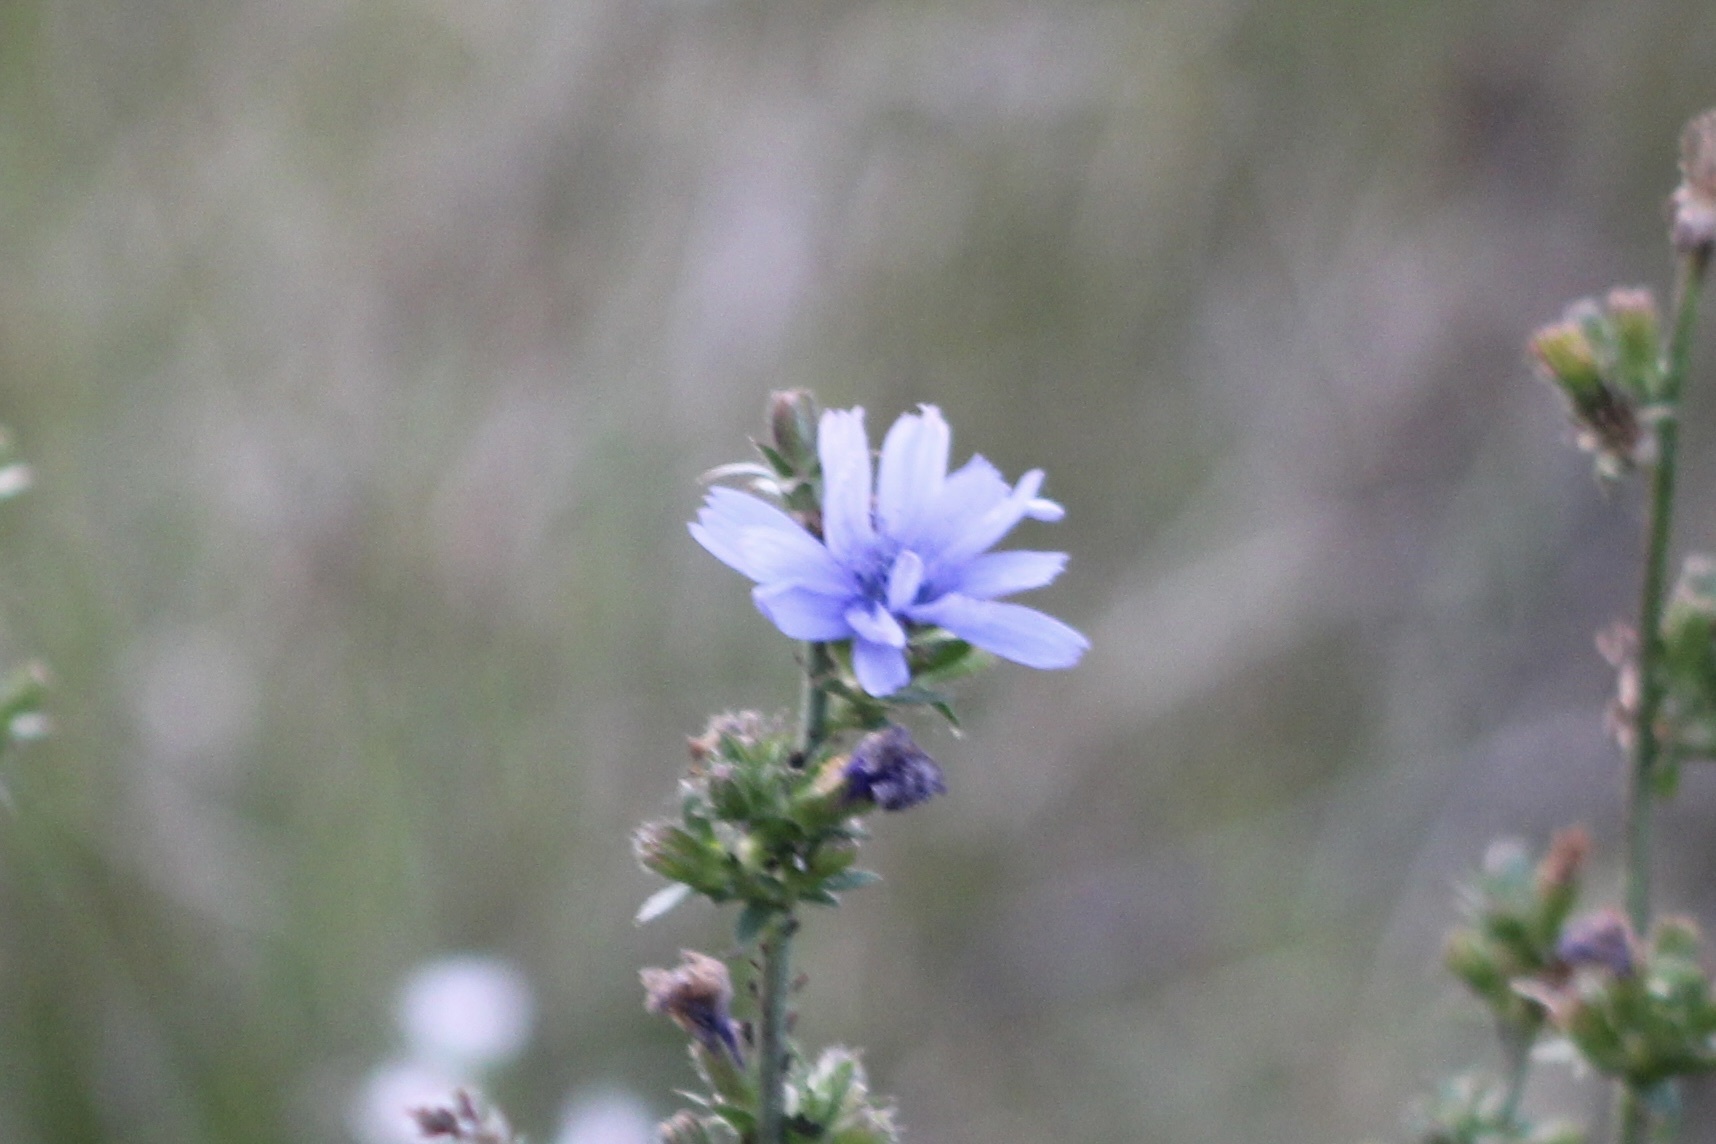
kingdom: Plantae
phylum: Tracheophyta
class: Magnoliopsida
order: Asterales
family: Asteraceae
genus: Cichorium
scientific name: Cichorium intybus
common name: Chicory
